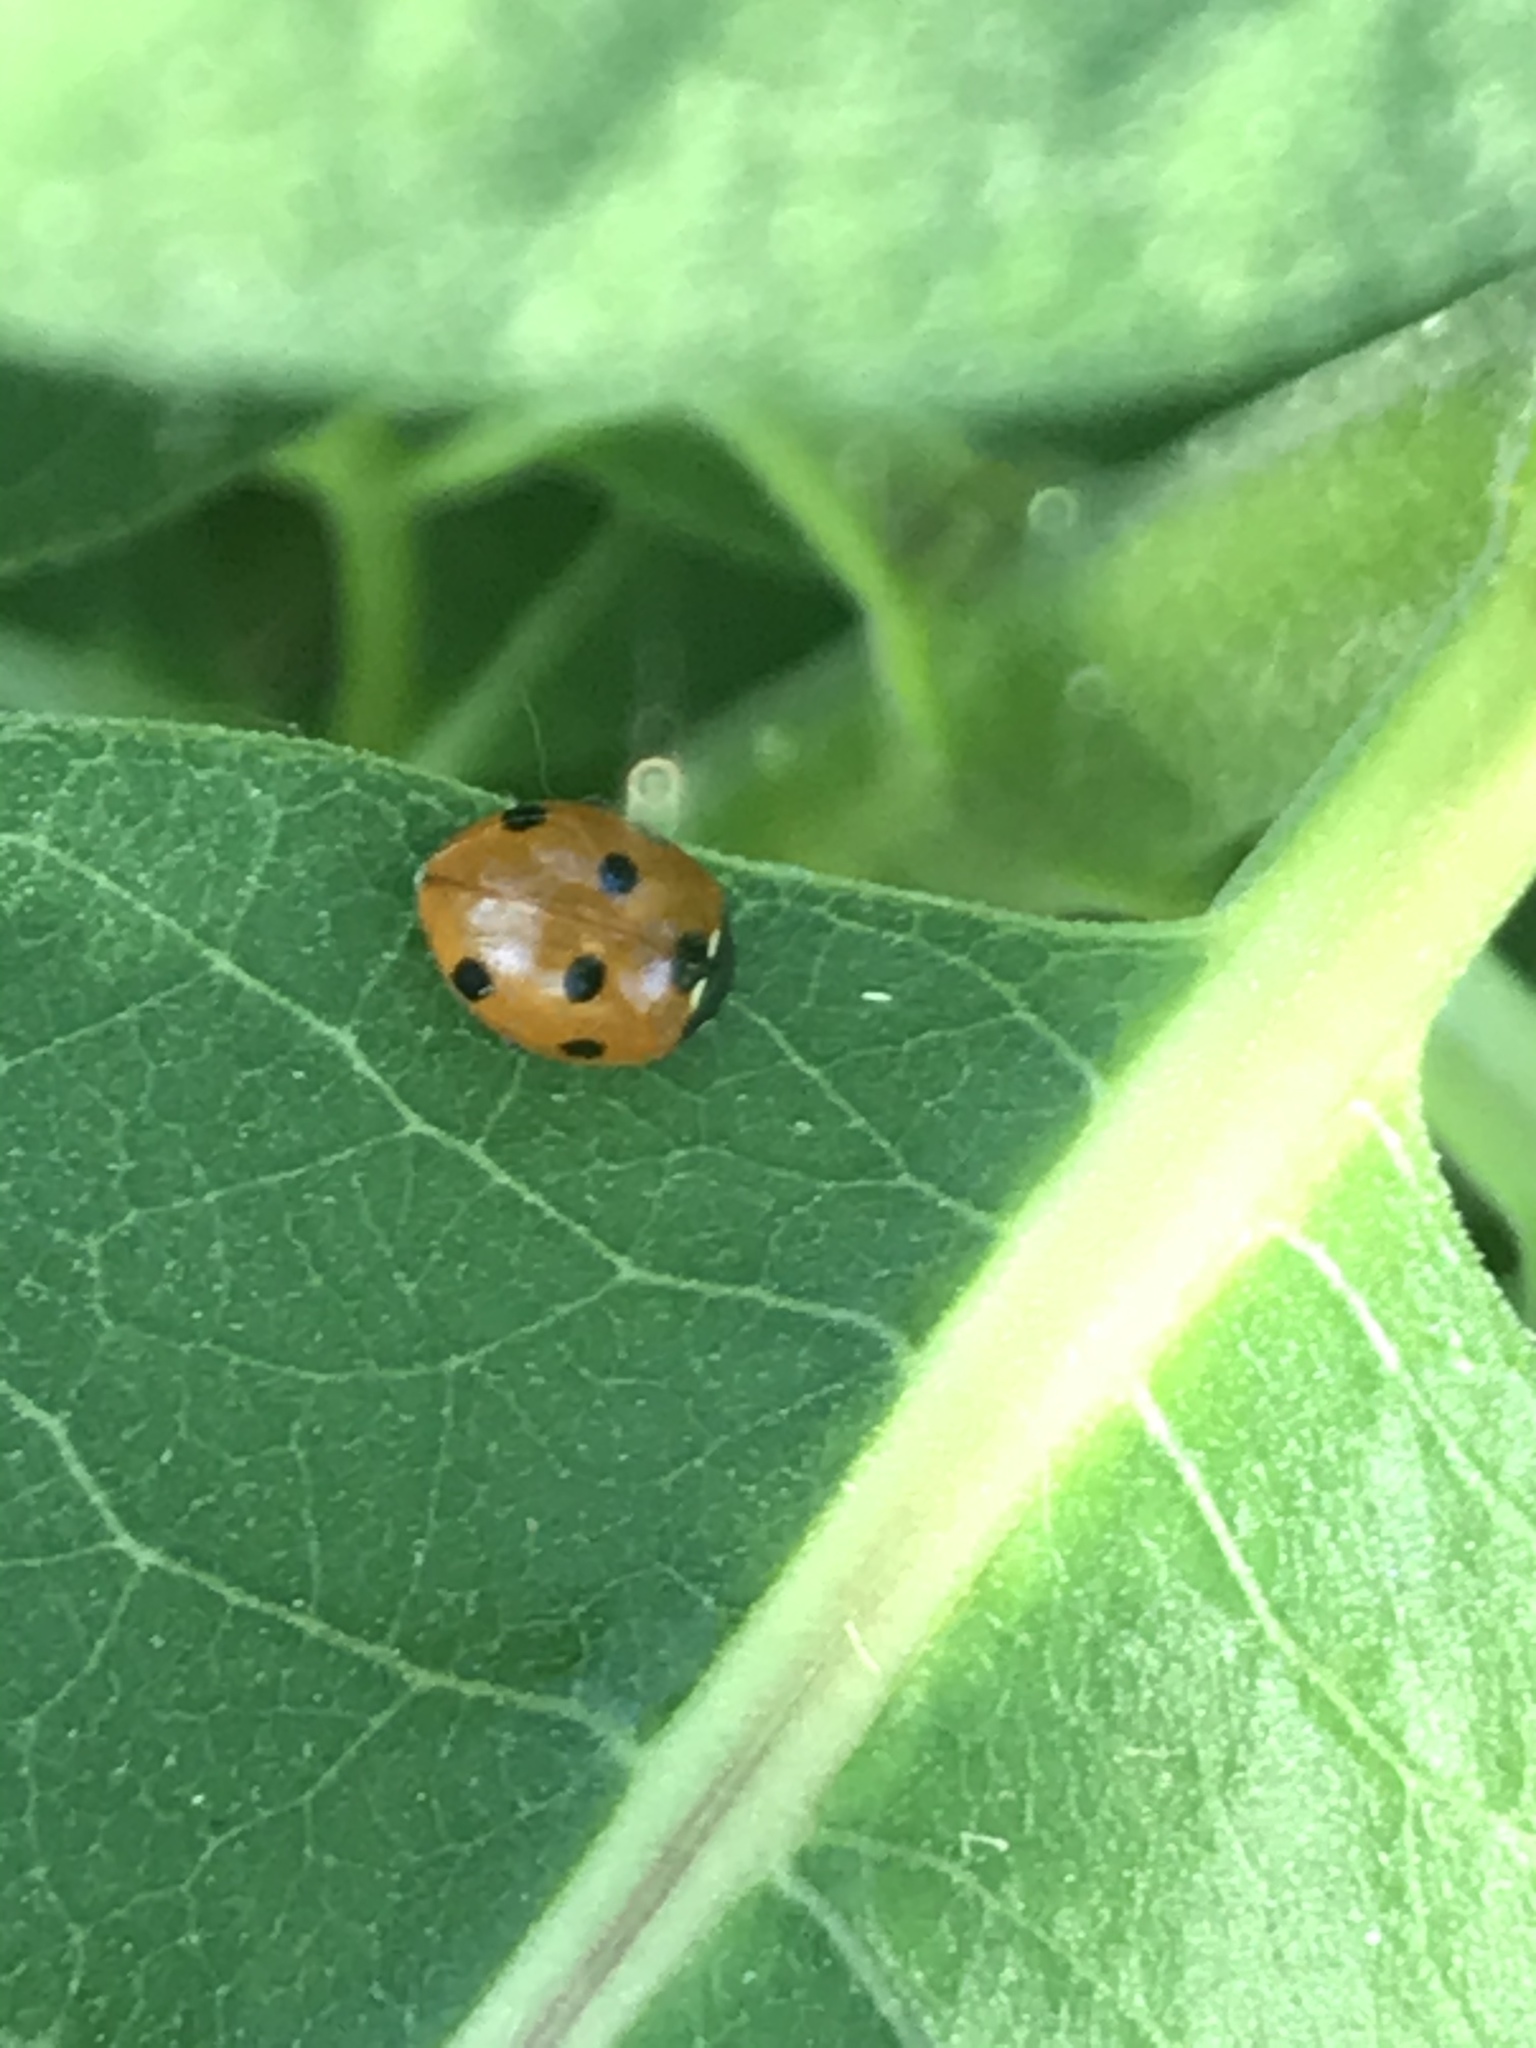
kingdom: Animalia
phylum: Arthropoda
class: Insecta
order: Coleoptera
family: Coccinellidae
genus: Coccinella
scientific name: Coccinella septempunctata
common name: Sevenspotted lady beetle
